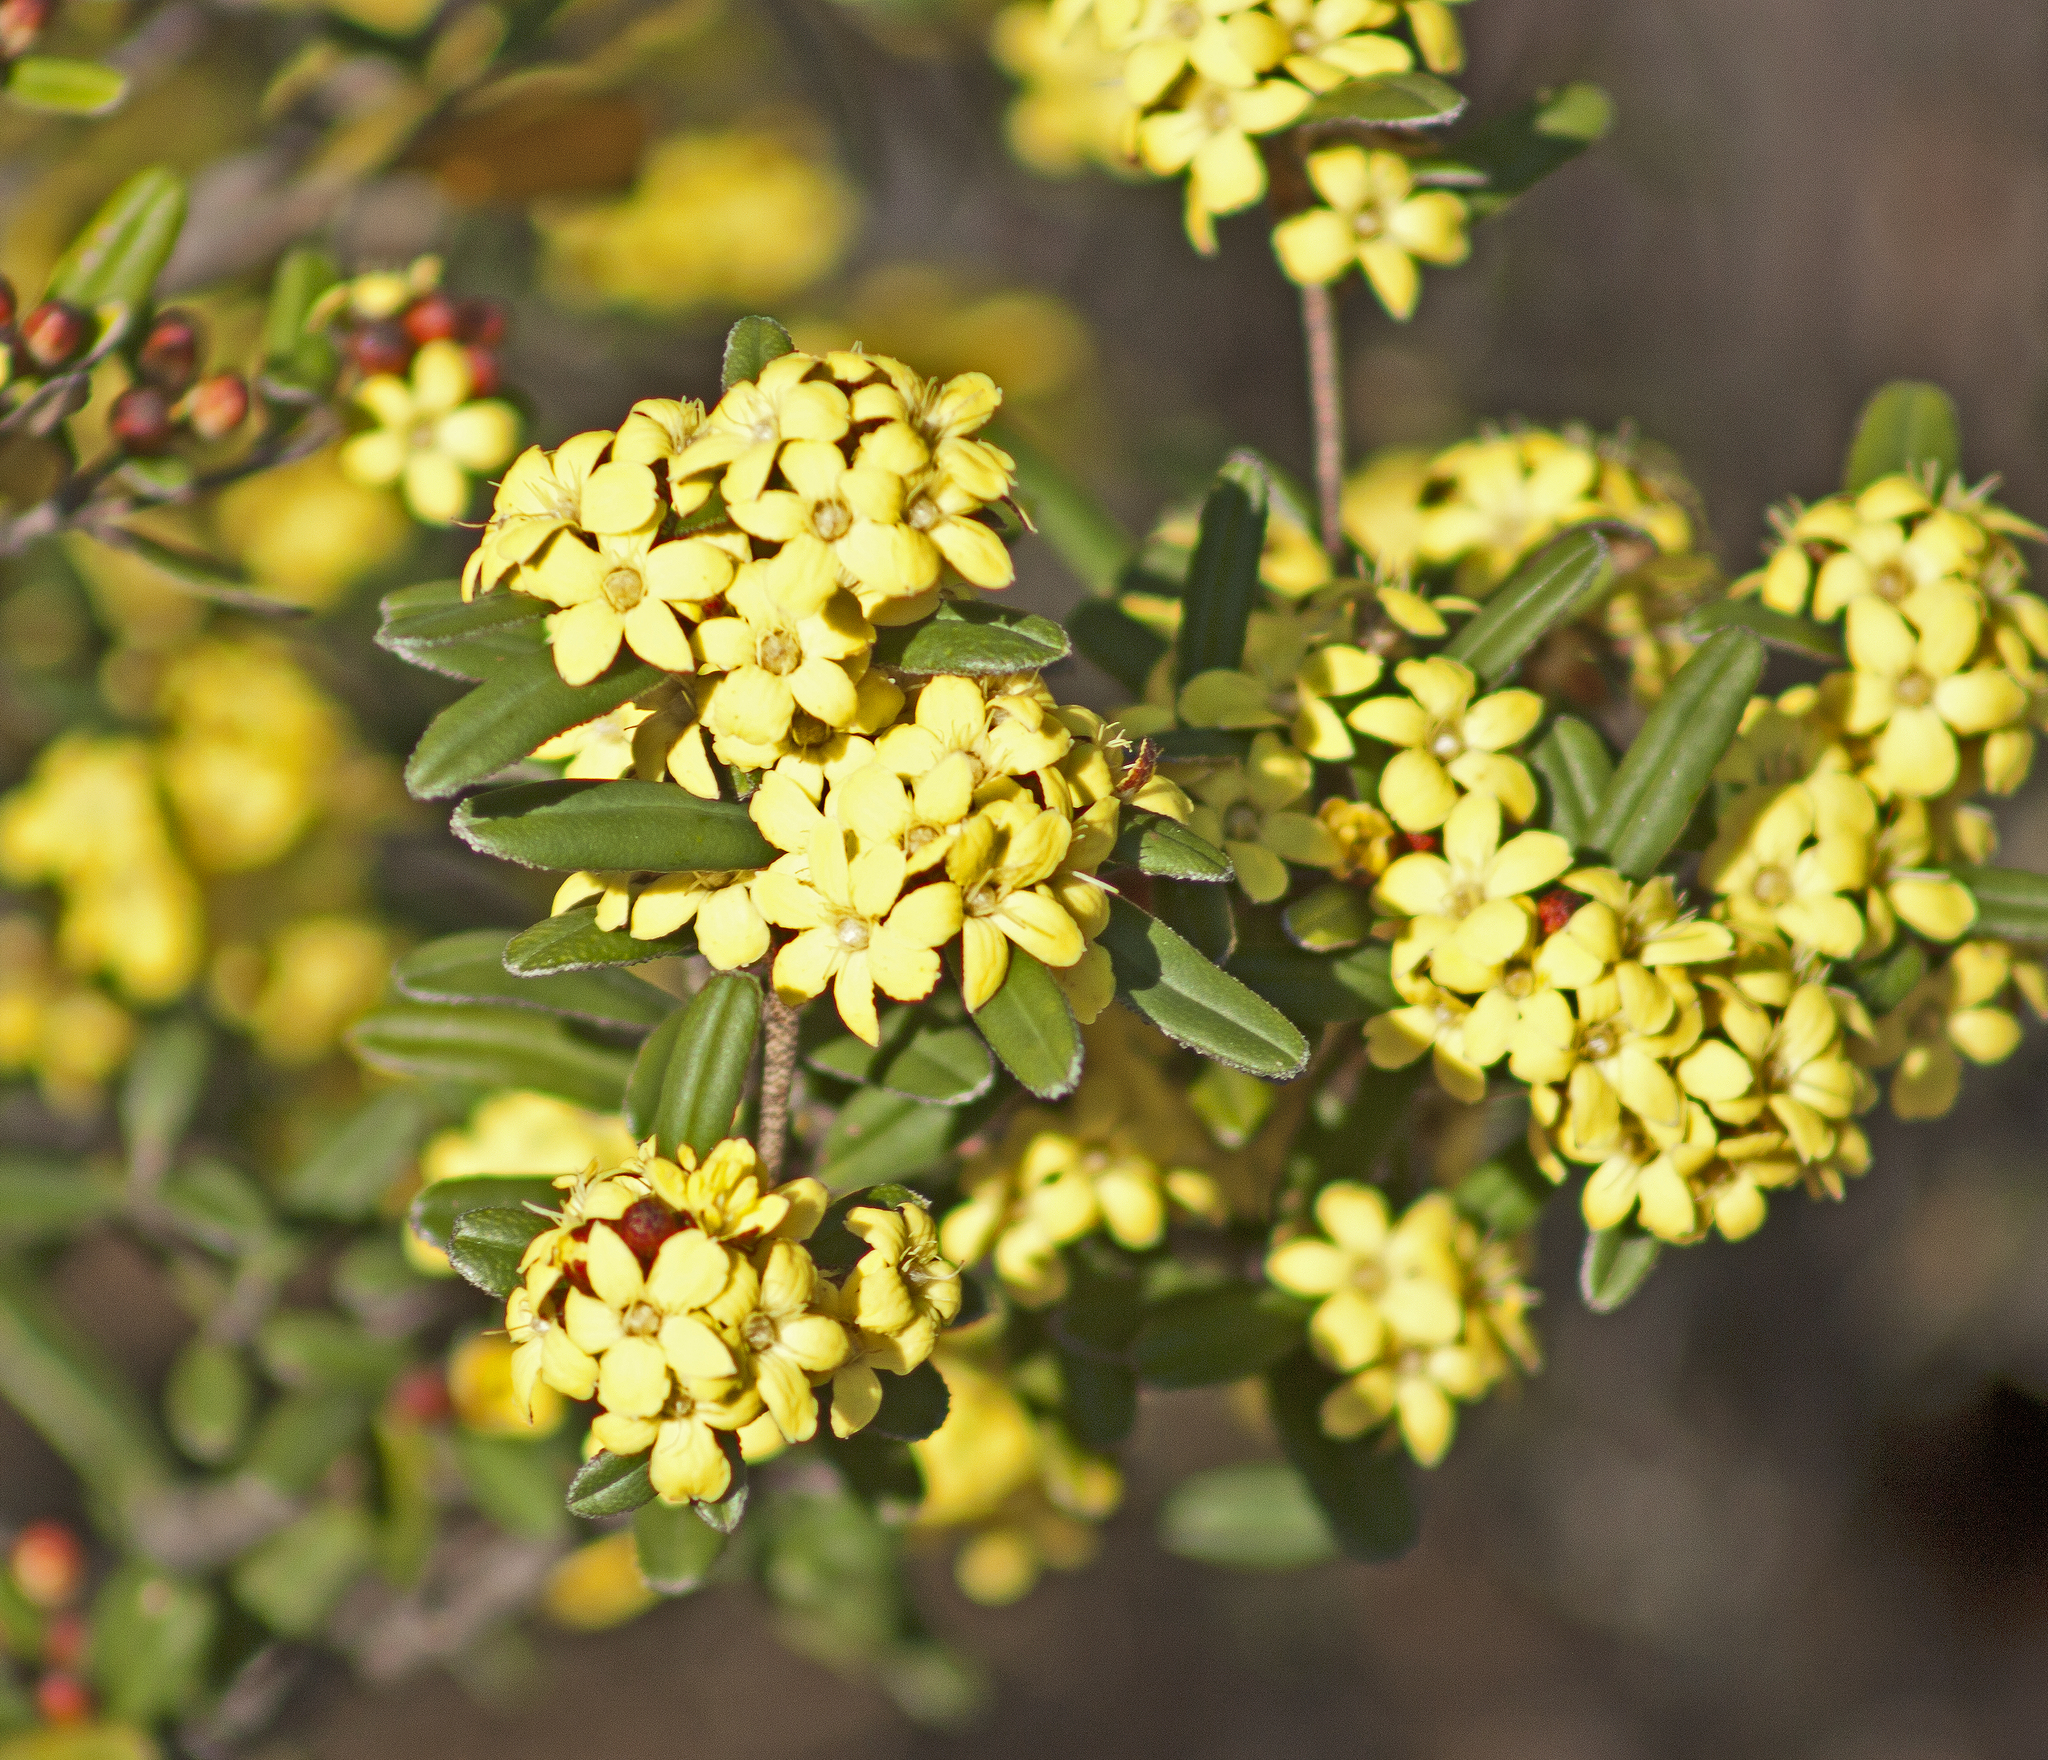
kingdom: Plantae
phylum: Tracheophyta
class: Magnoliopsida
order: Sapindales
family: Rutaceae
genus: Phebalium
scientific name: Phebalium whitei
